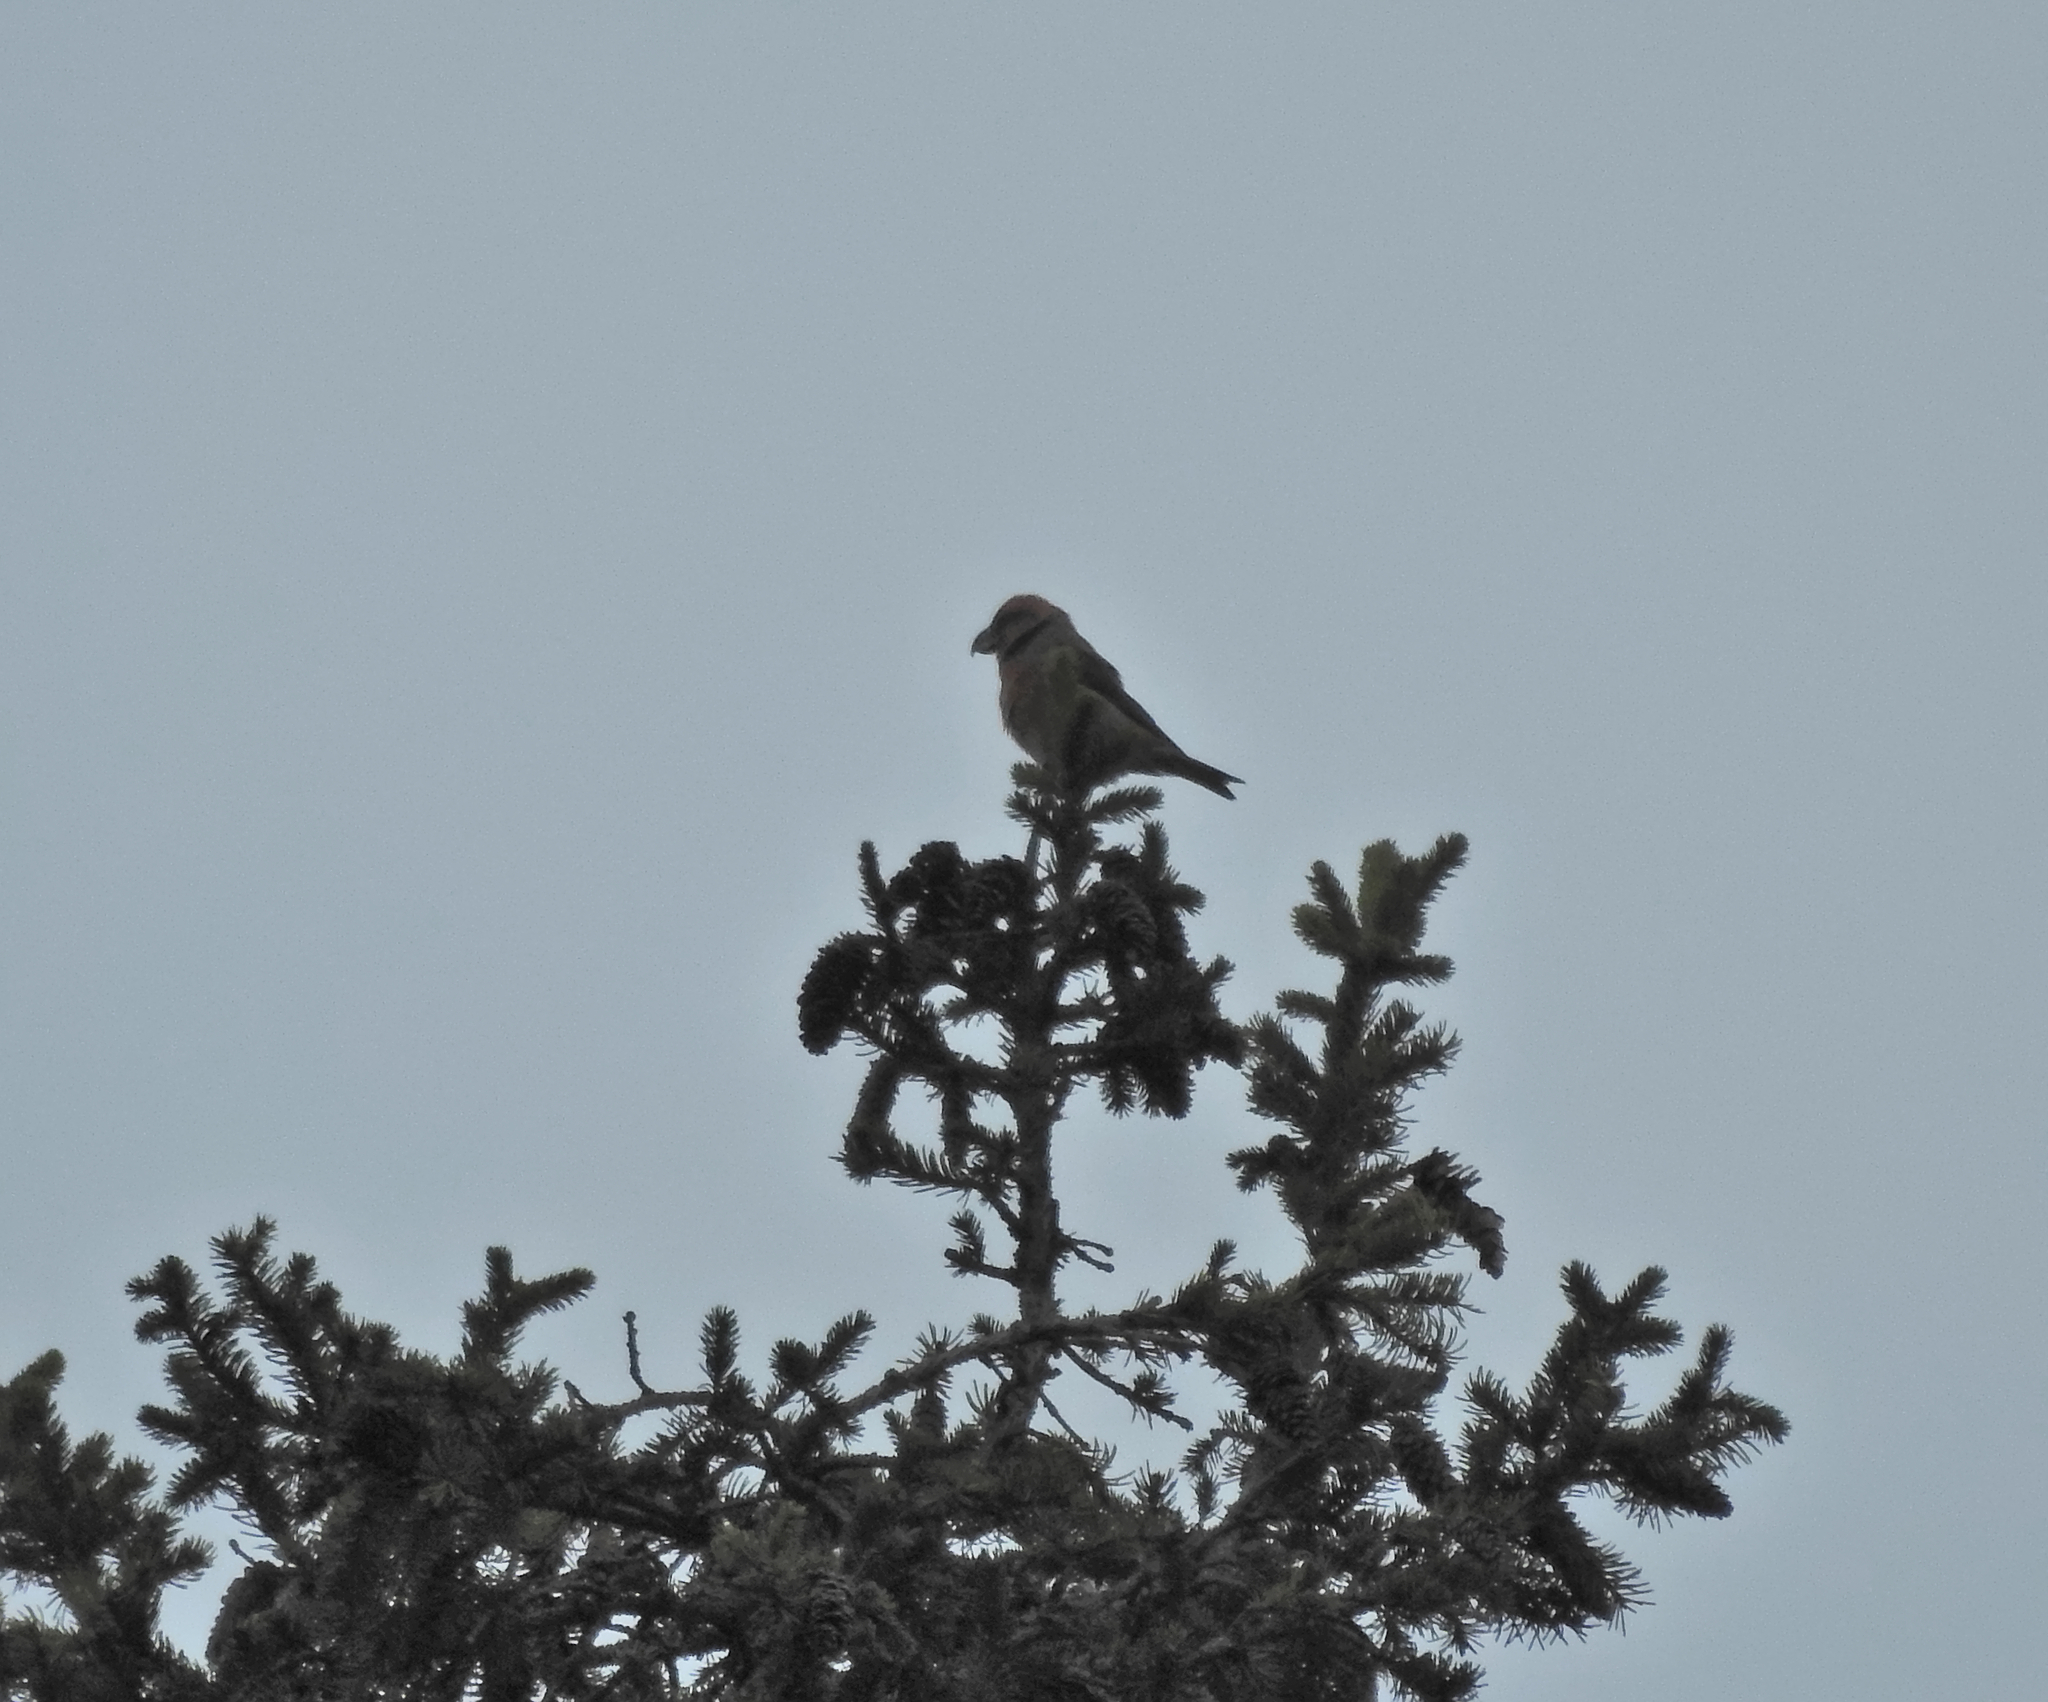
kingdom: Animalia
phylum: Chordata
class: Aves
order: Passeriformes
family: Fringillidae
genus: Loxia
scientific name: Loxia pytyopsittacus
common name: Parrot crossbill
